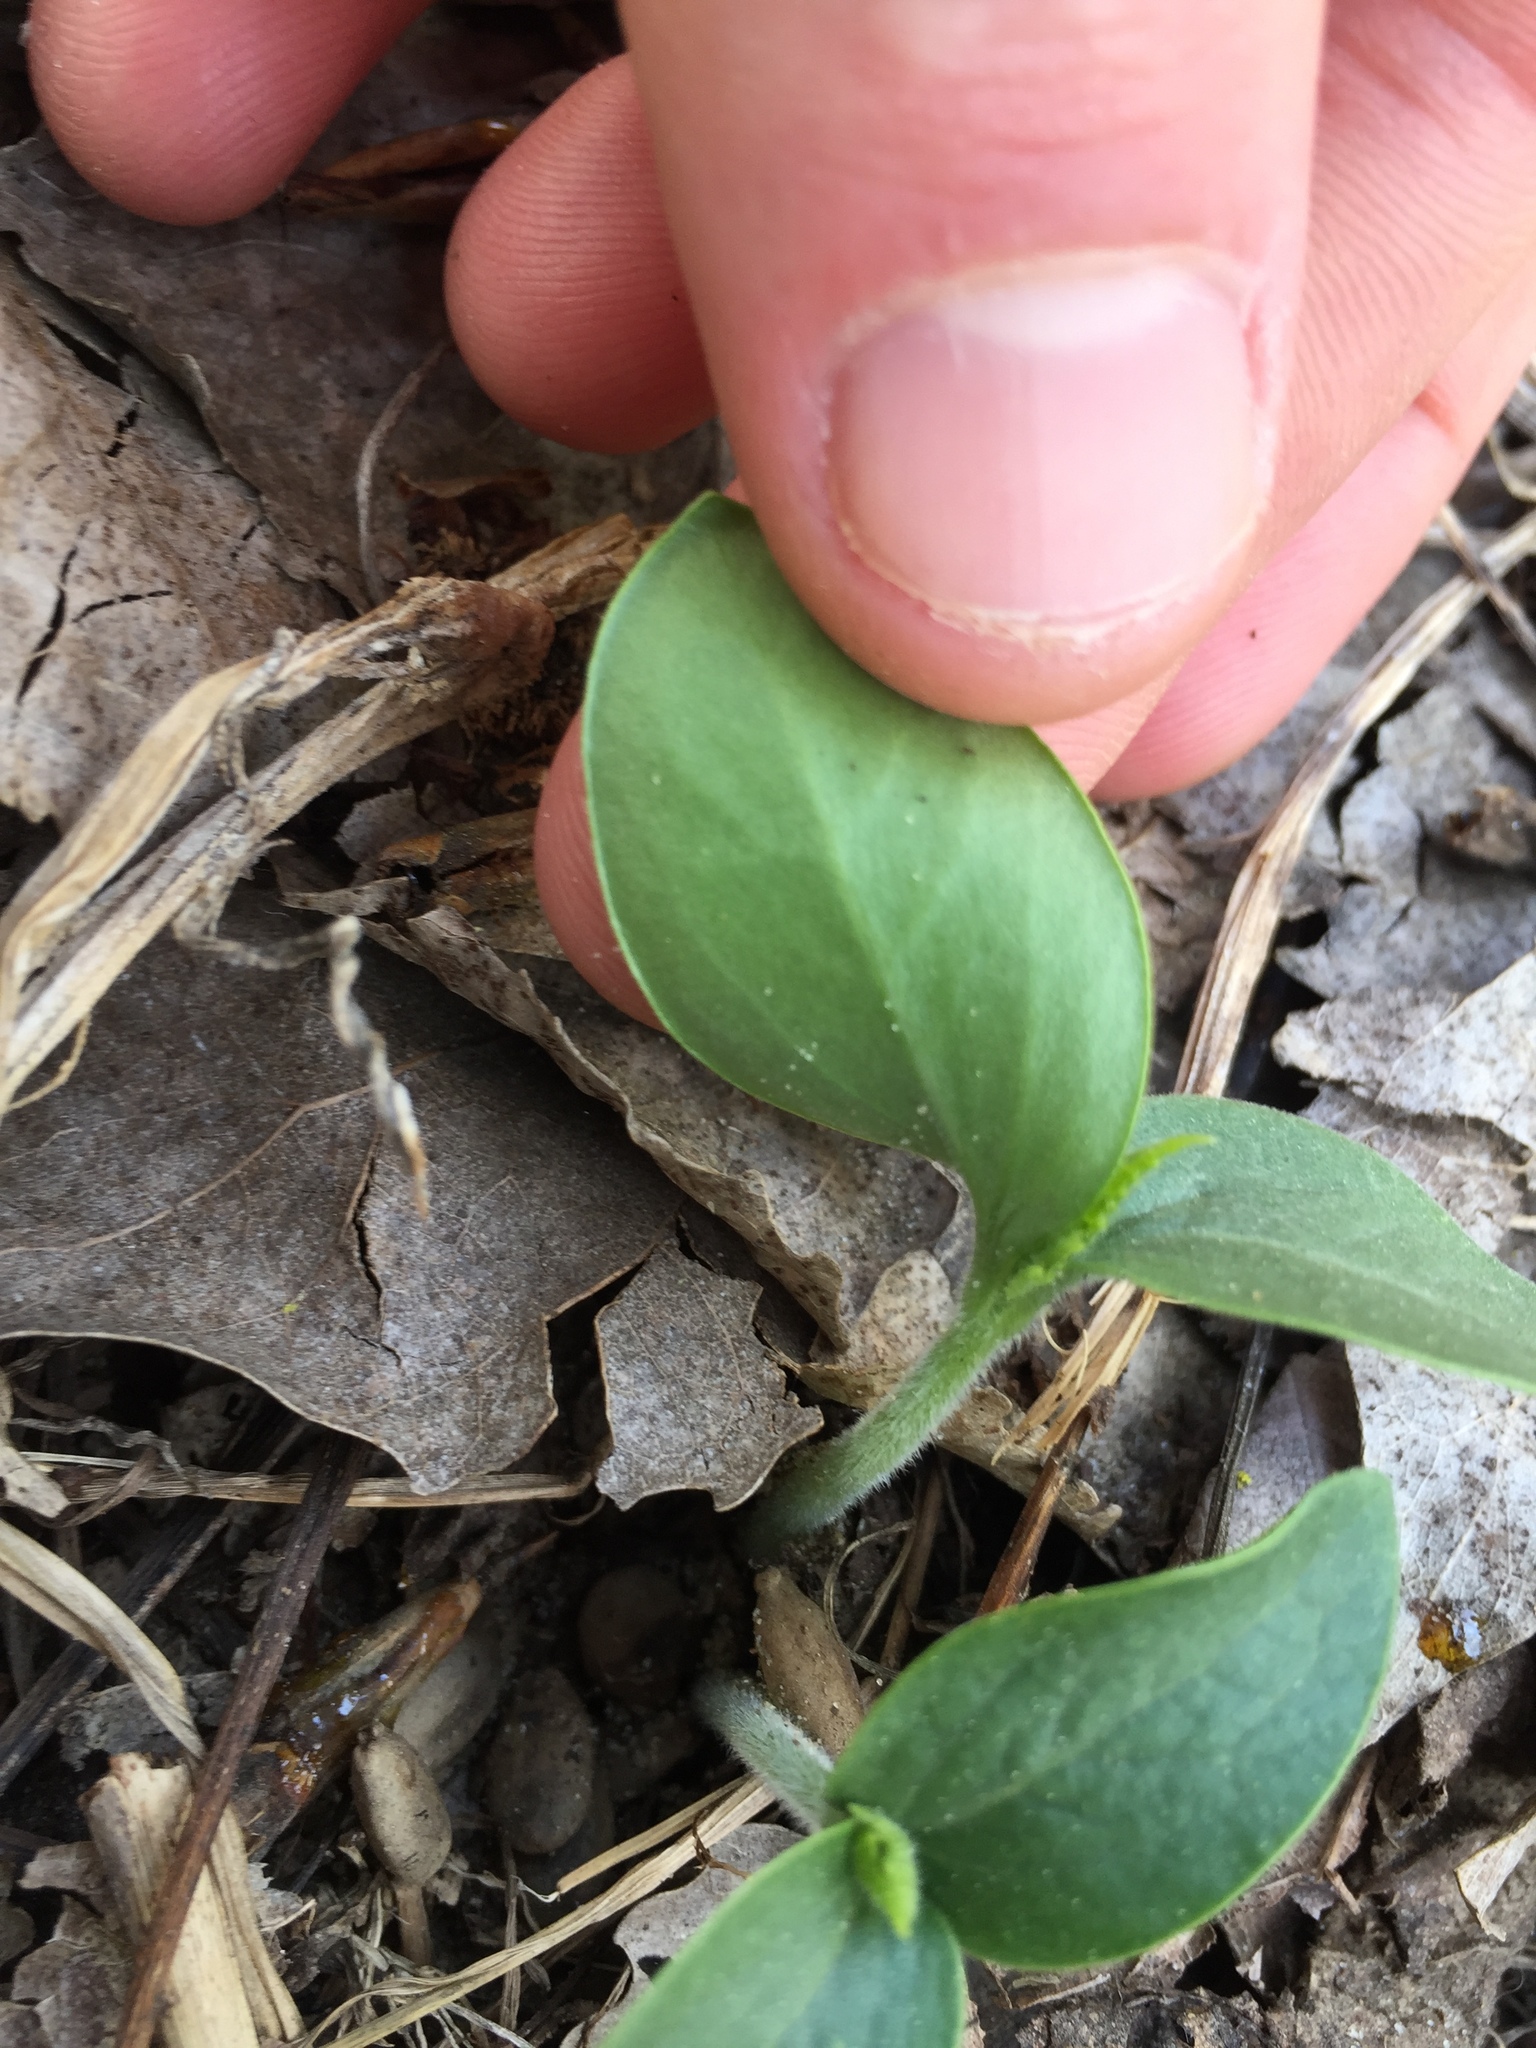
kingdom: Plantae
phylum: Tracheophyta
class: Magnoliopsida
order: Cucurbitales
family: Cucurbitaceae
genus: Echinocystis
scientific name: Echinocystis lobata
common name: Wild cucumber
